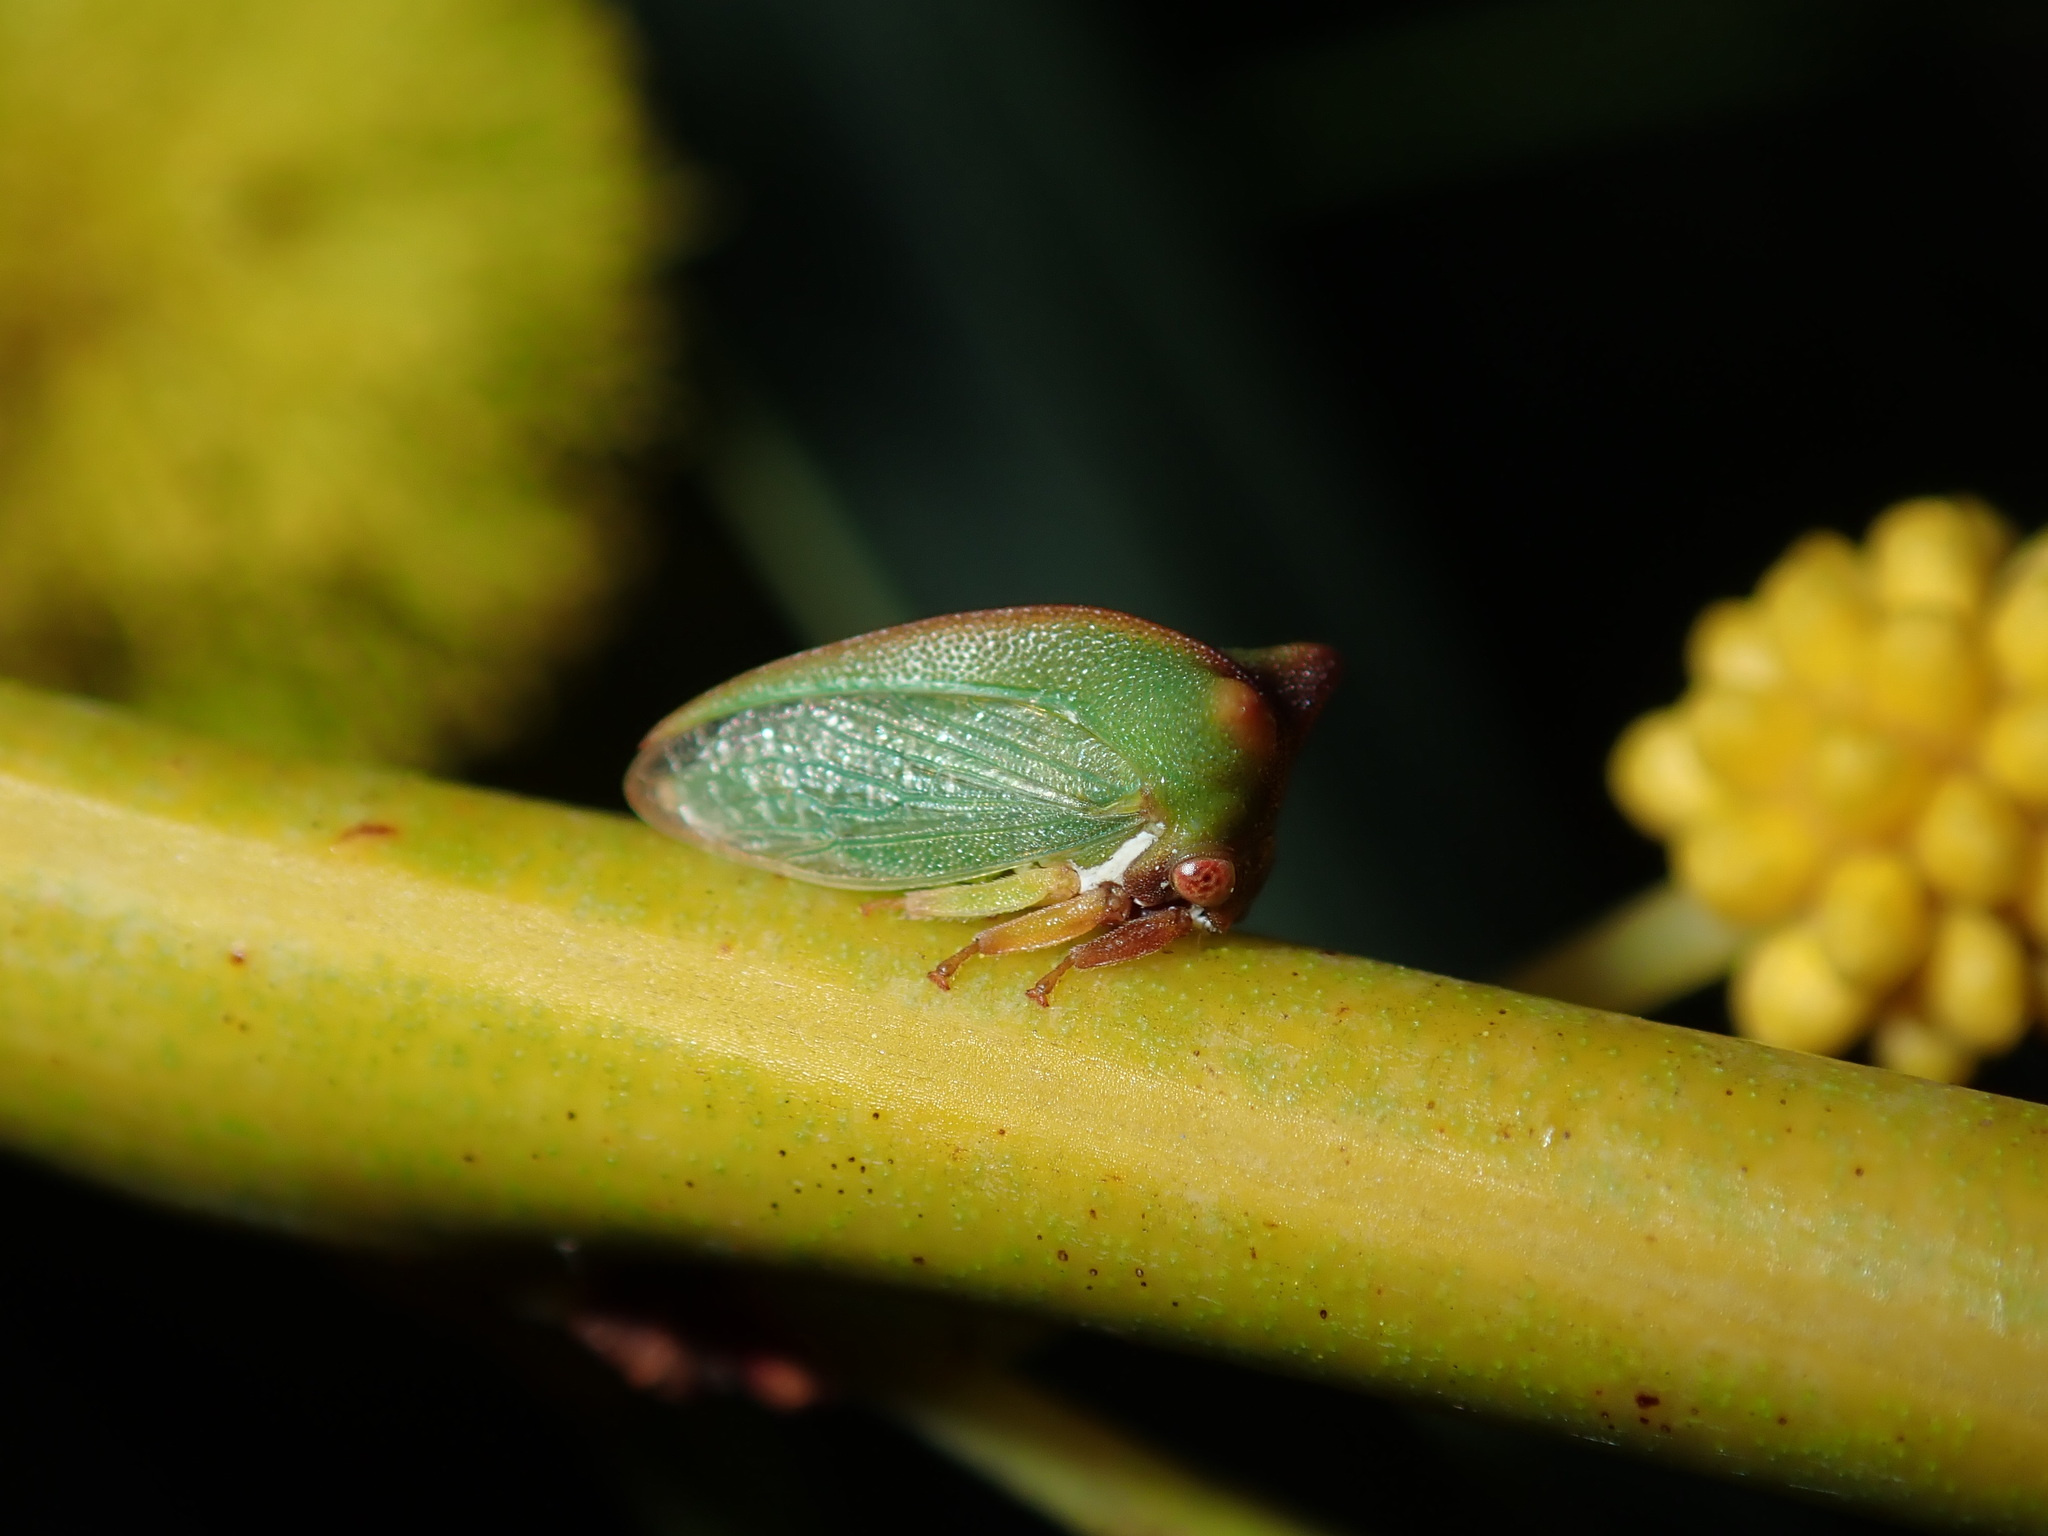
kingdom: Animalia
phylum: Arthropoda
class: Insecta
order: Hemiptera
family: Membracidae
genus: Sextius
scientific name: Sextius virescens
